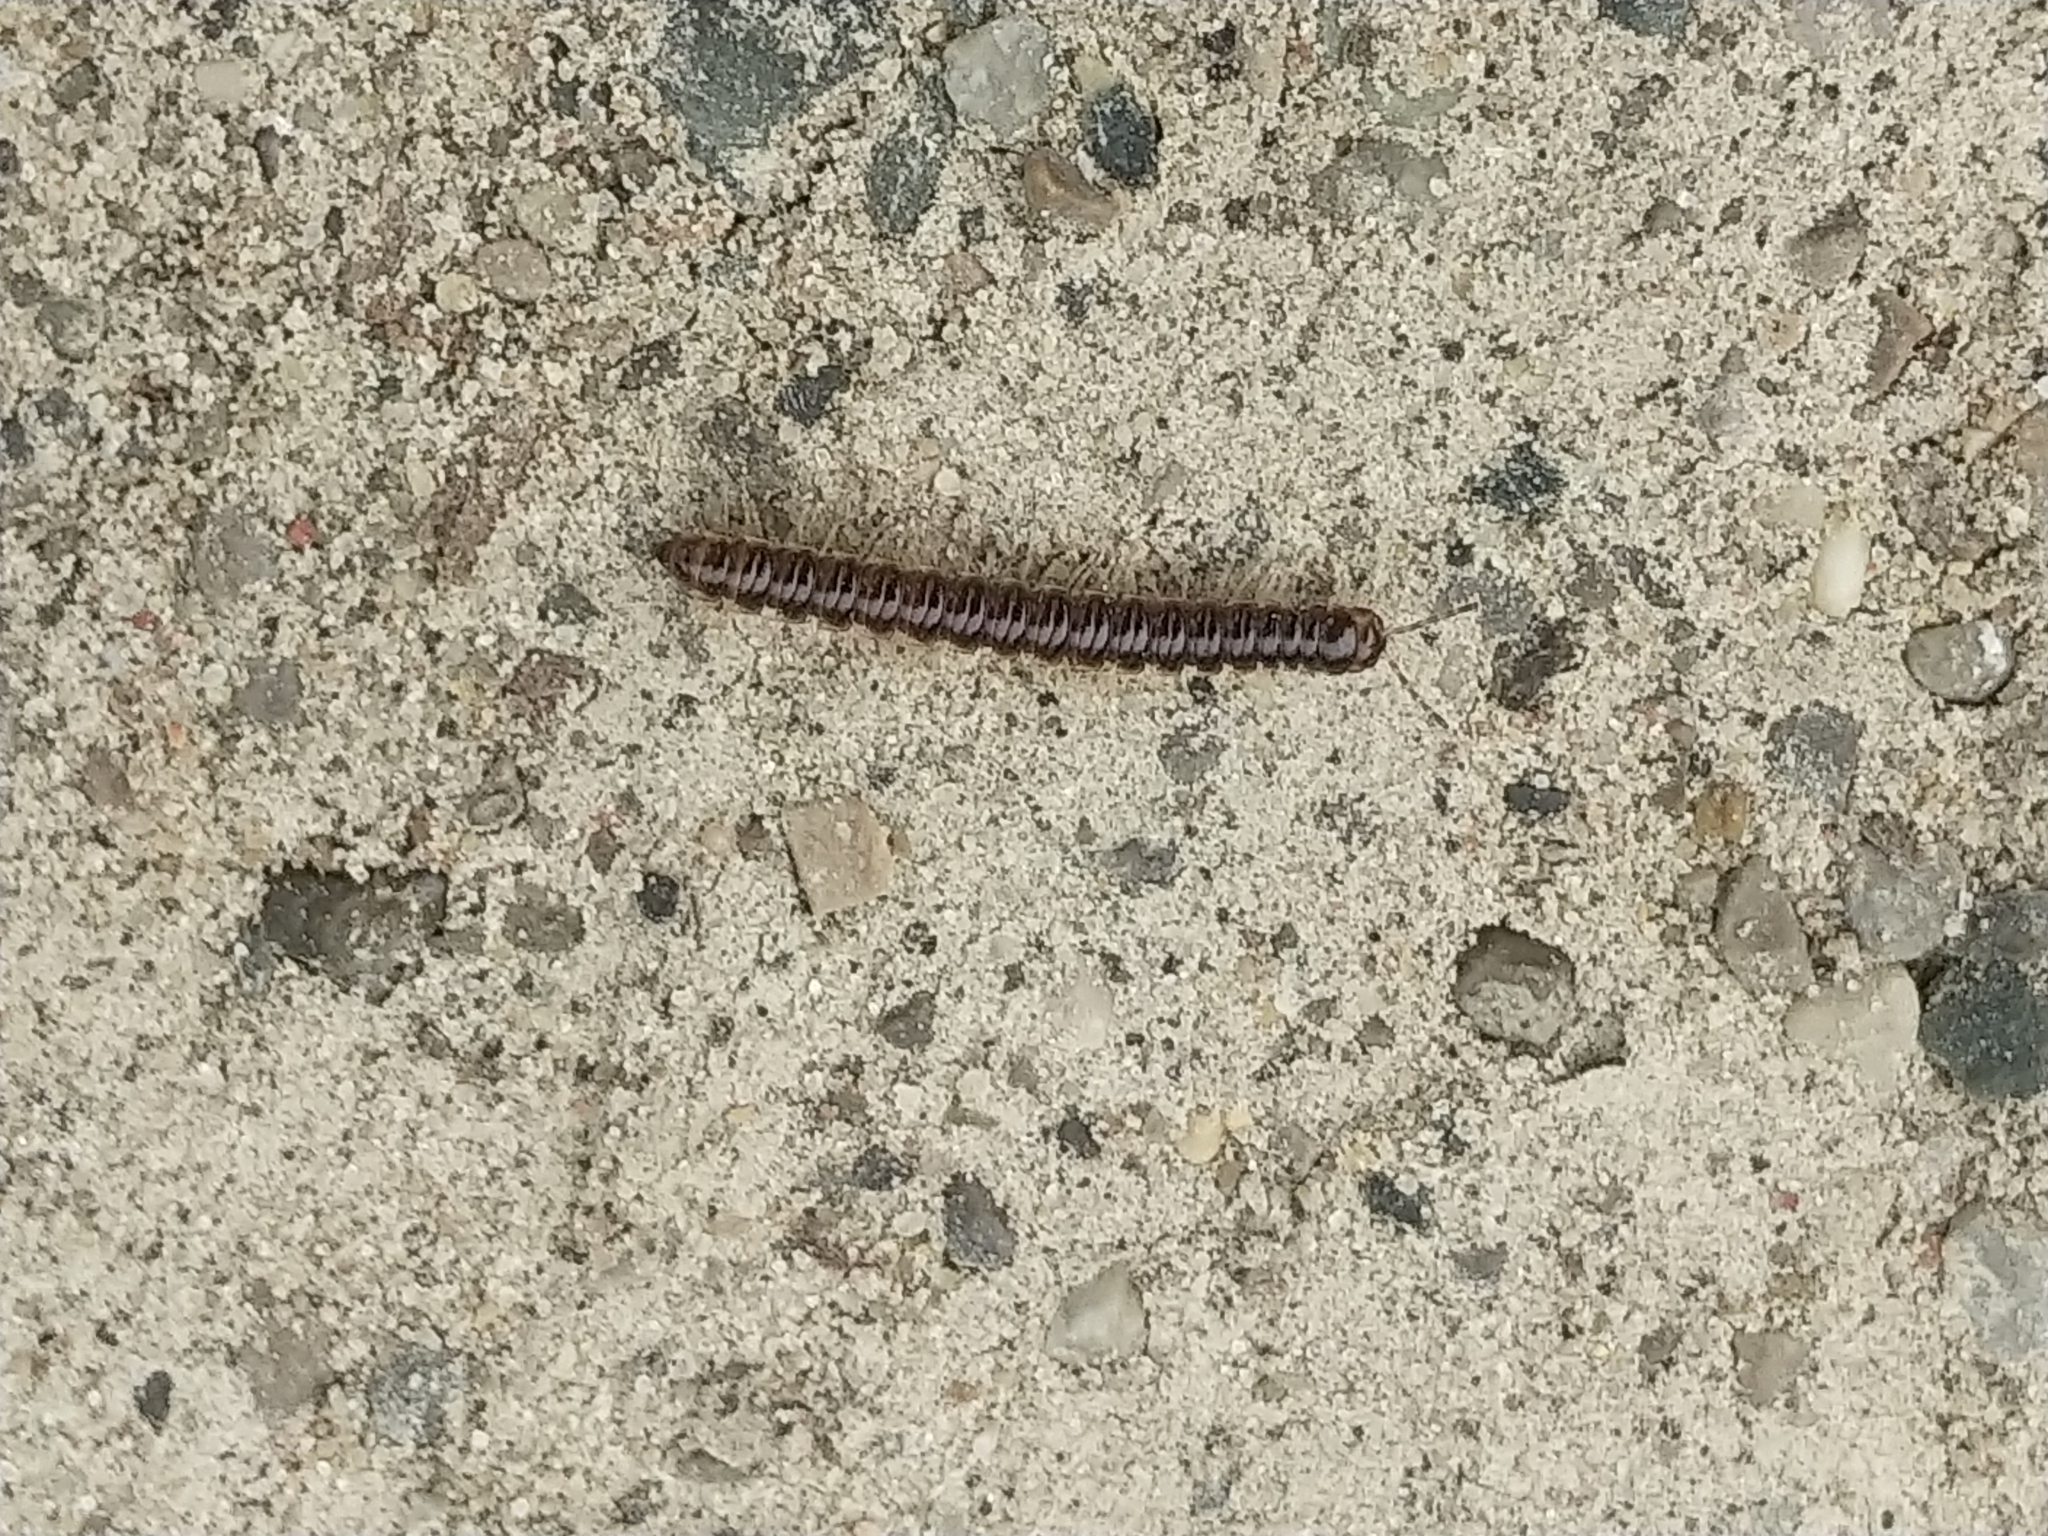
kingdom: Animalia
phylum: Arthropoda
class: Diplopoda
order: Polydesmida
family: Paradoxosomatidae
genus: Oxidus
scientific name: Oxidus gracilis
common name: Greenhouse millipede
